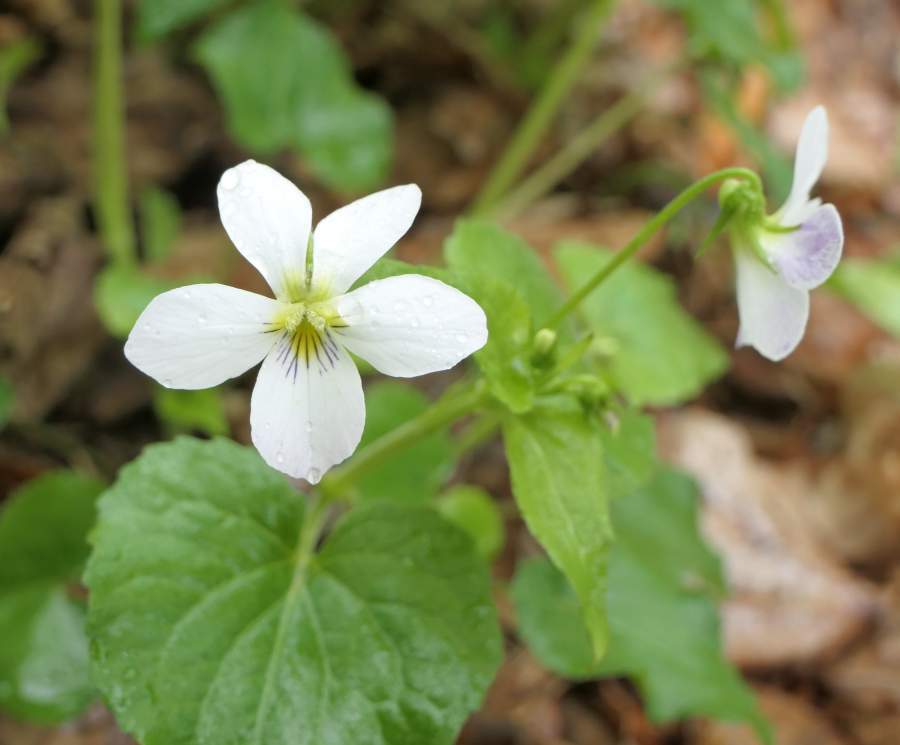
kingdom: Plantae
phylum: Tracheophyta
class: Magnoliopsida
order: Malpighiales
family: Violaceae
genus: Viola
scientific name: Viola canadensis
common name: Canada violet
